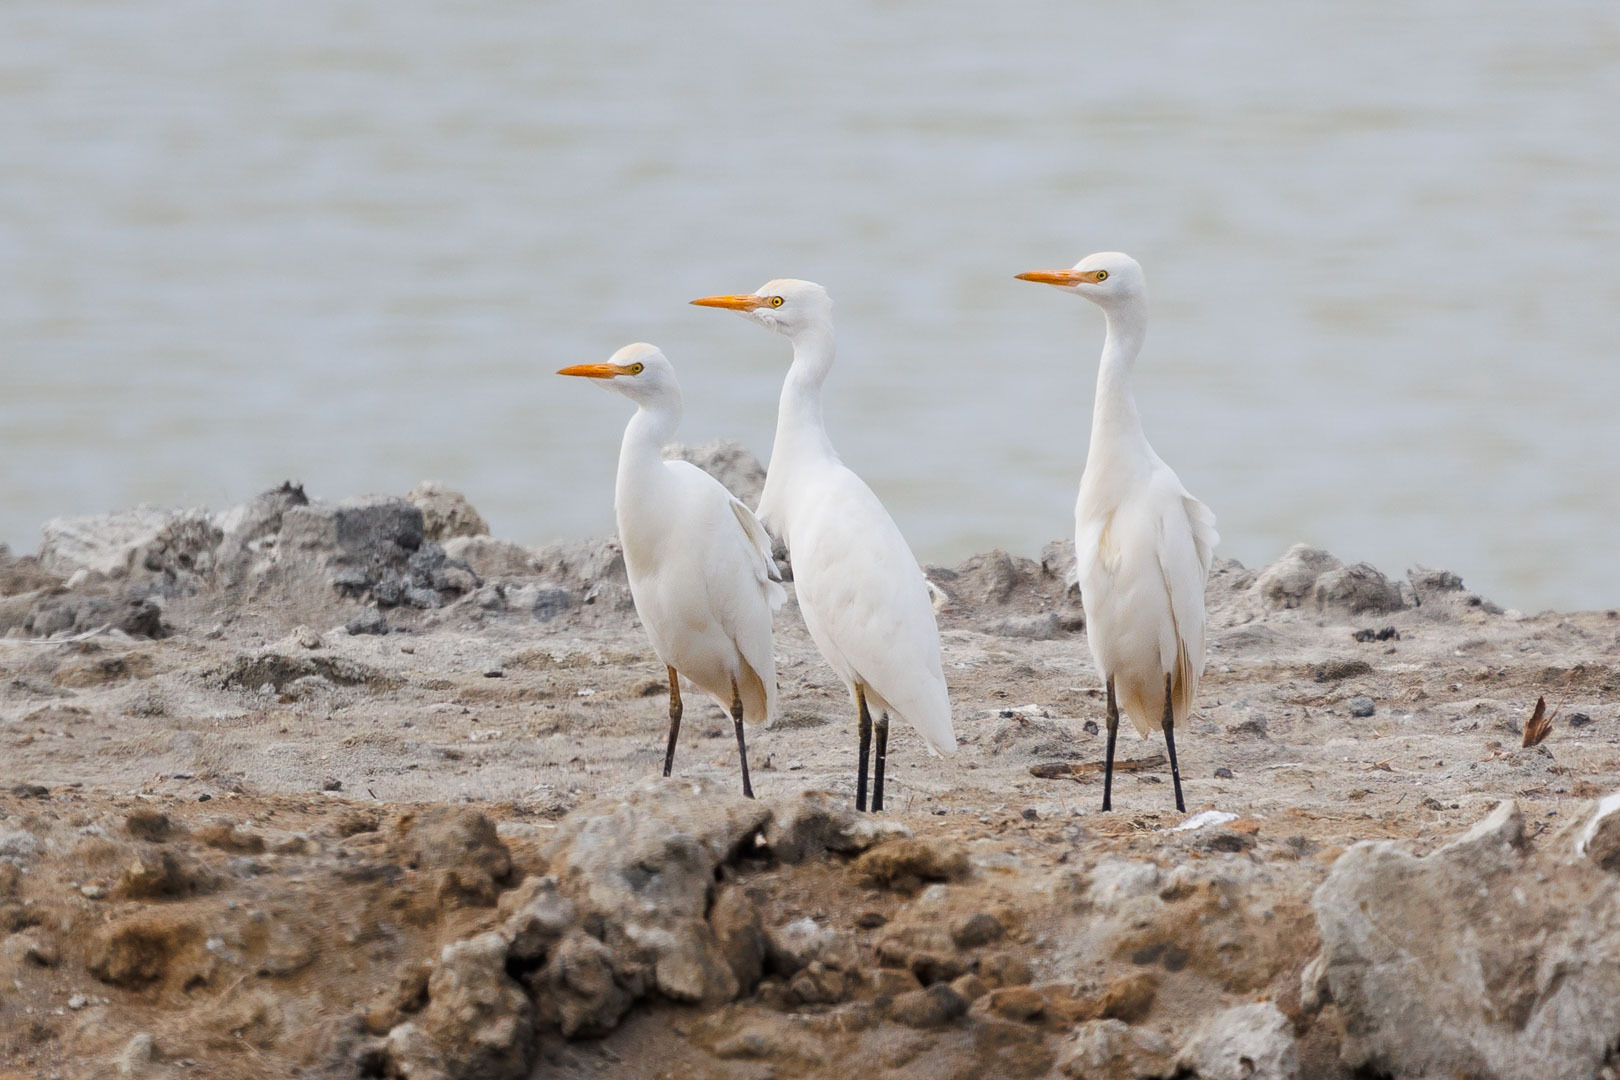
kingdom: Animalia
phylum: Chordata
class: Aves
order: Pelecaniformes
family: Ardeidae
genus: Bubulcus
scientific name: Bubulcus ibis
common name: Cattle egret
